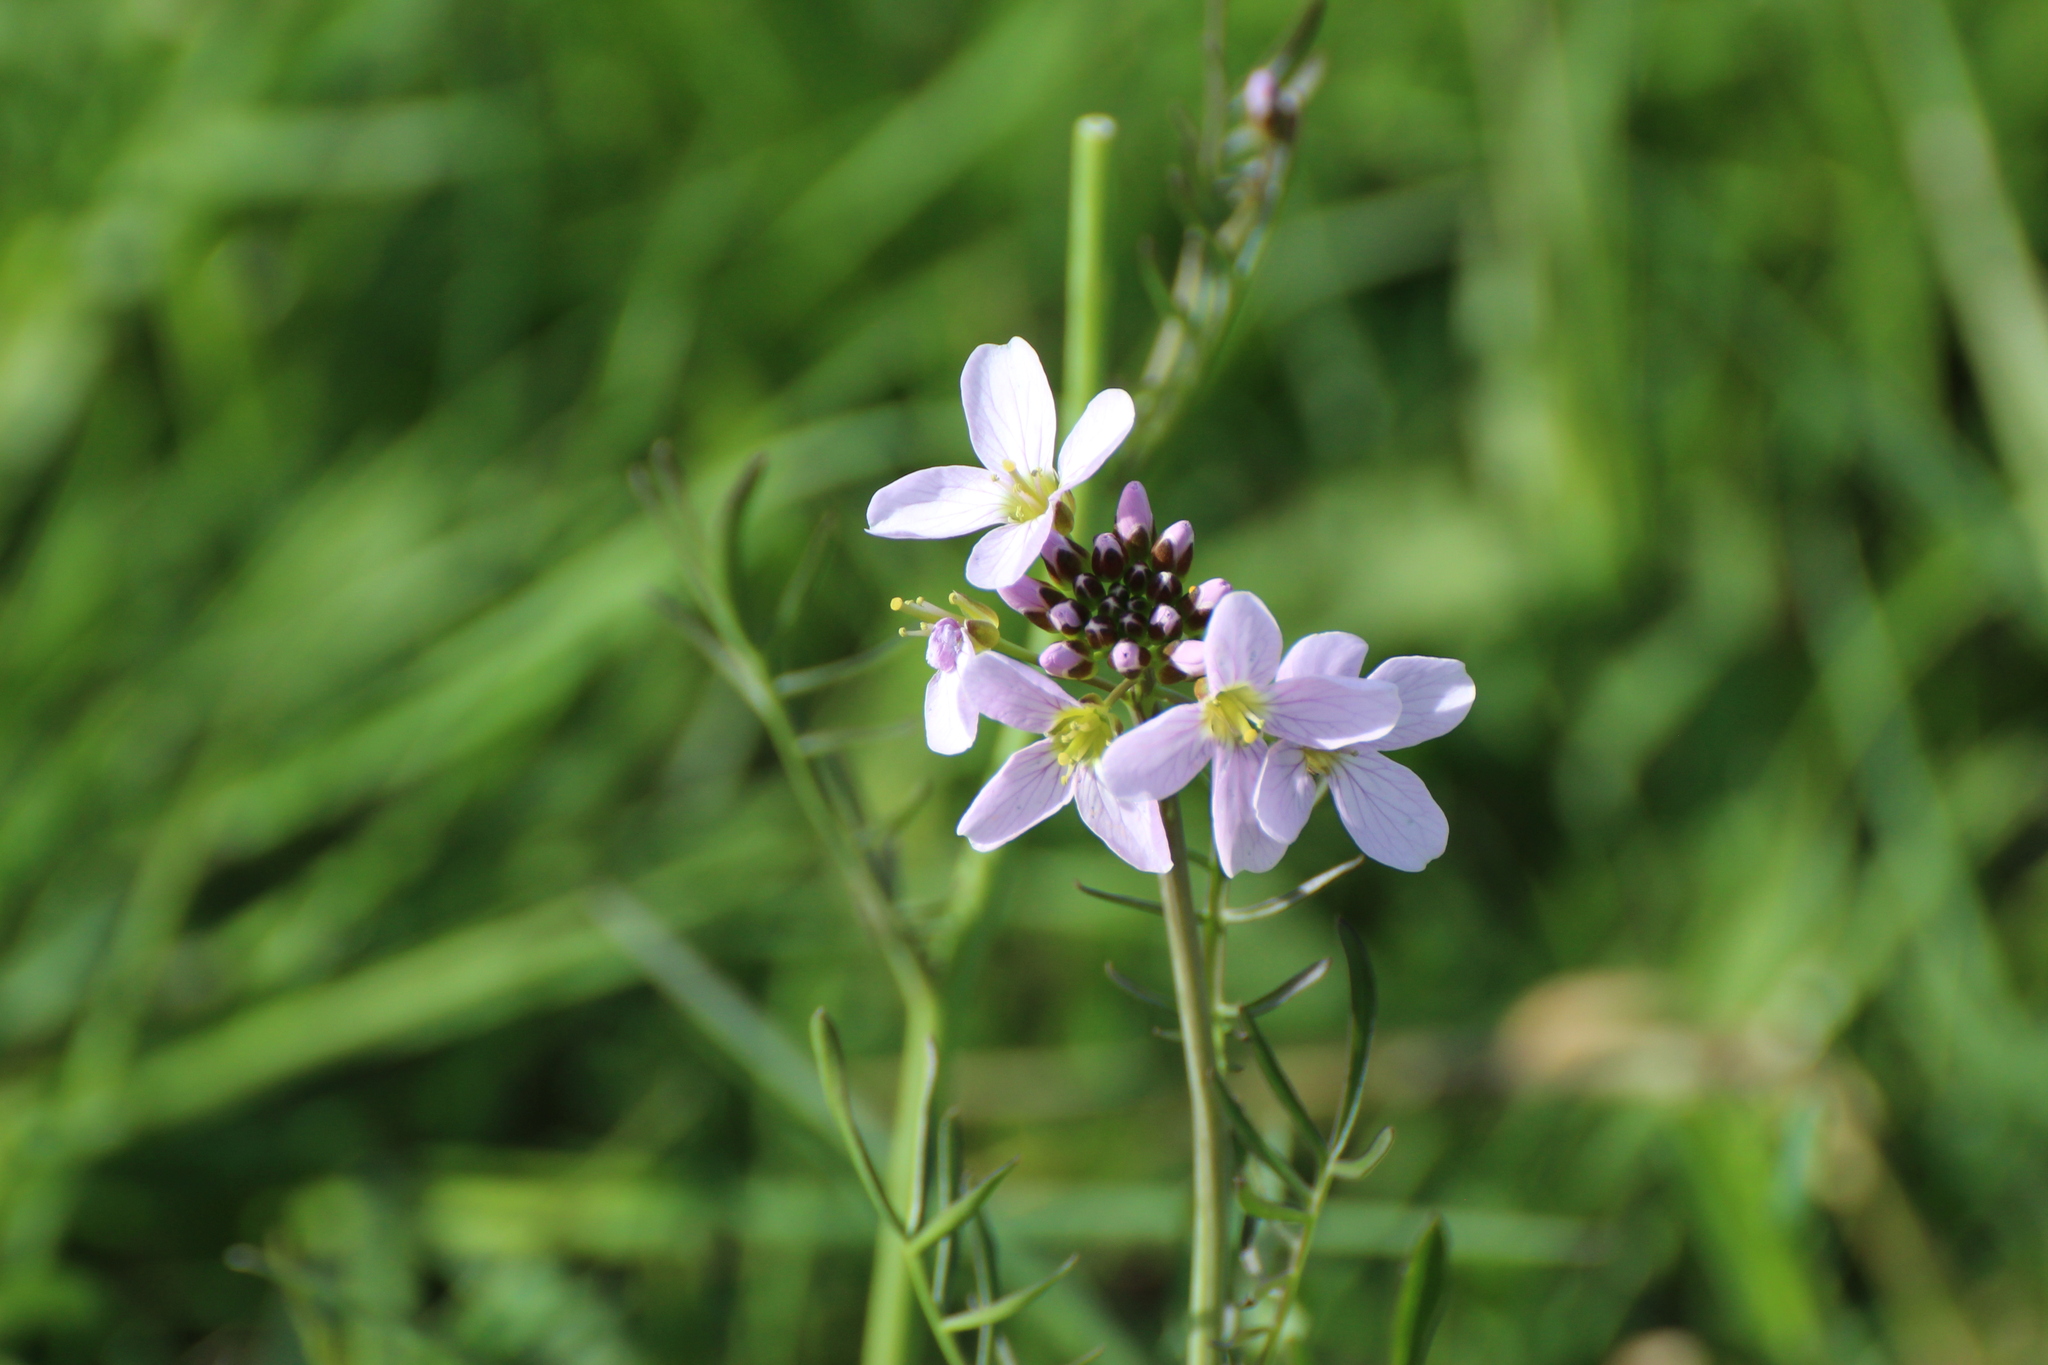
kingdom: Plantae
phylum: Tracheophyta
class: Magnoliopsida
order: Brassicales
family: Brassicaceae
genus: Cardamine
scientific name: Cardamine pratensis
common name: Cuckoo flower
